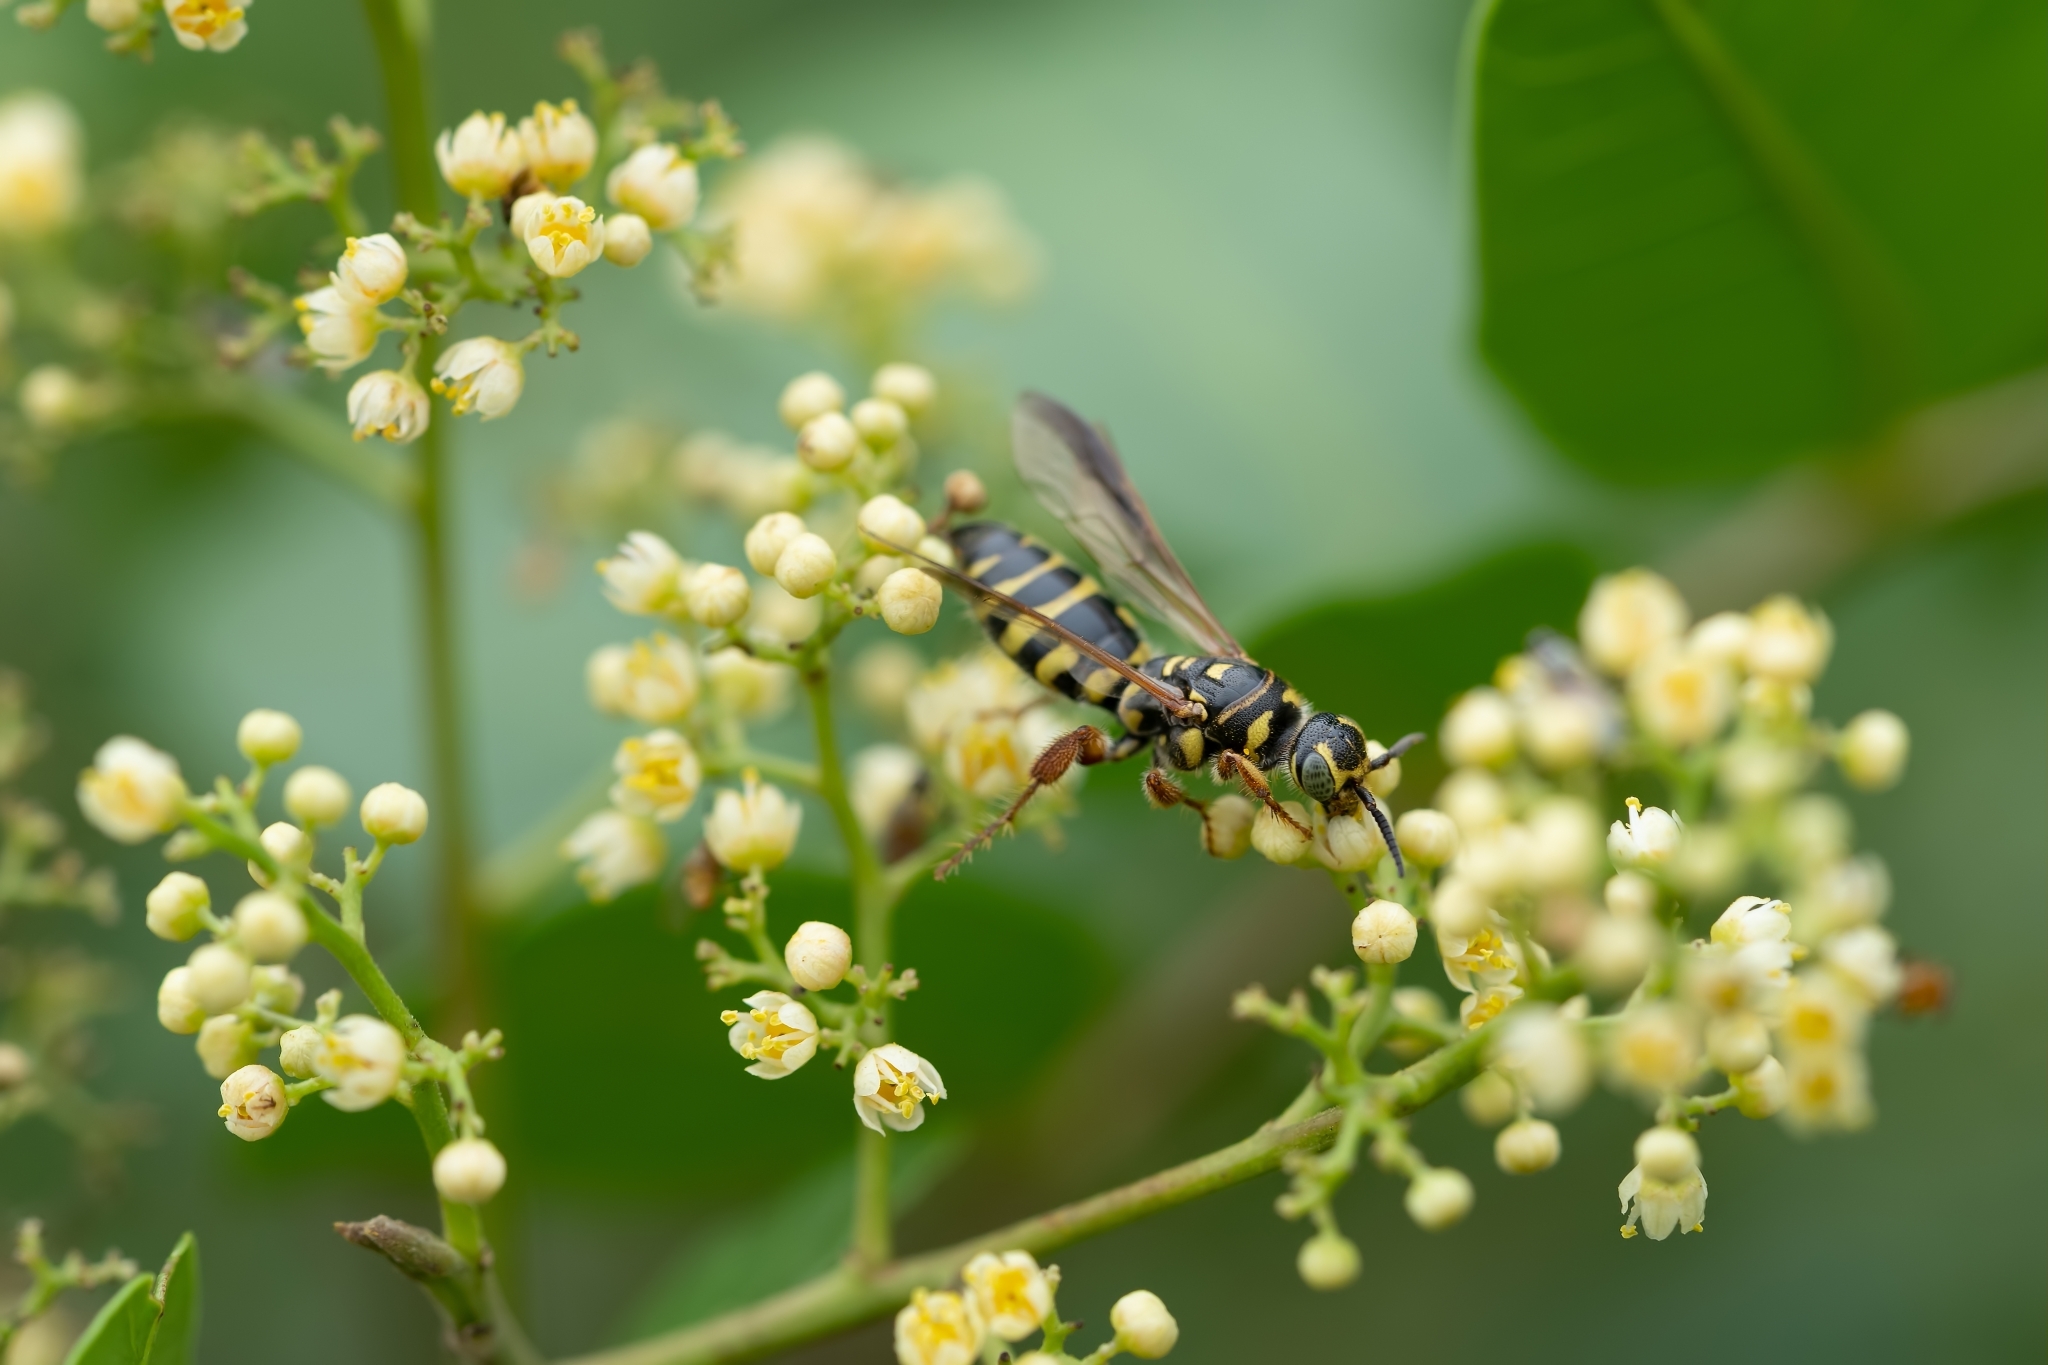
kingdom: Animalia
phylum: Arthropoda
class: Insecta
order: Hymenoptera
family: Tiphiidae
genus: Myzinum
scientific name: Myzinum maculatum
